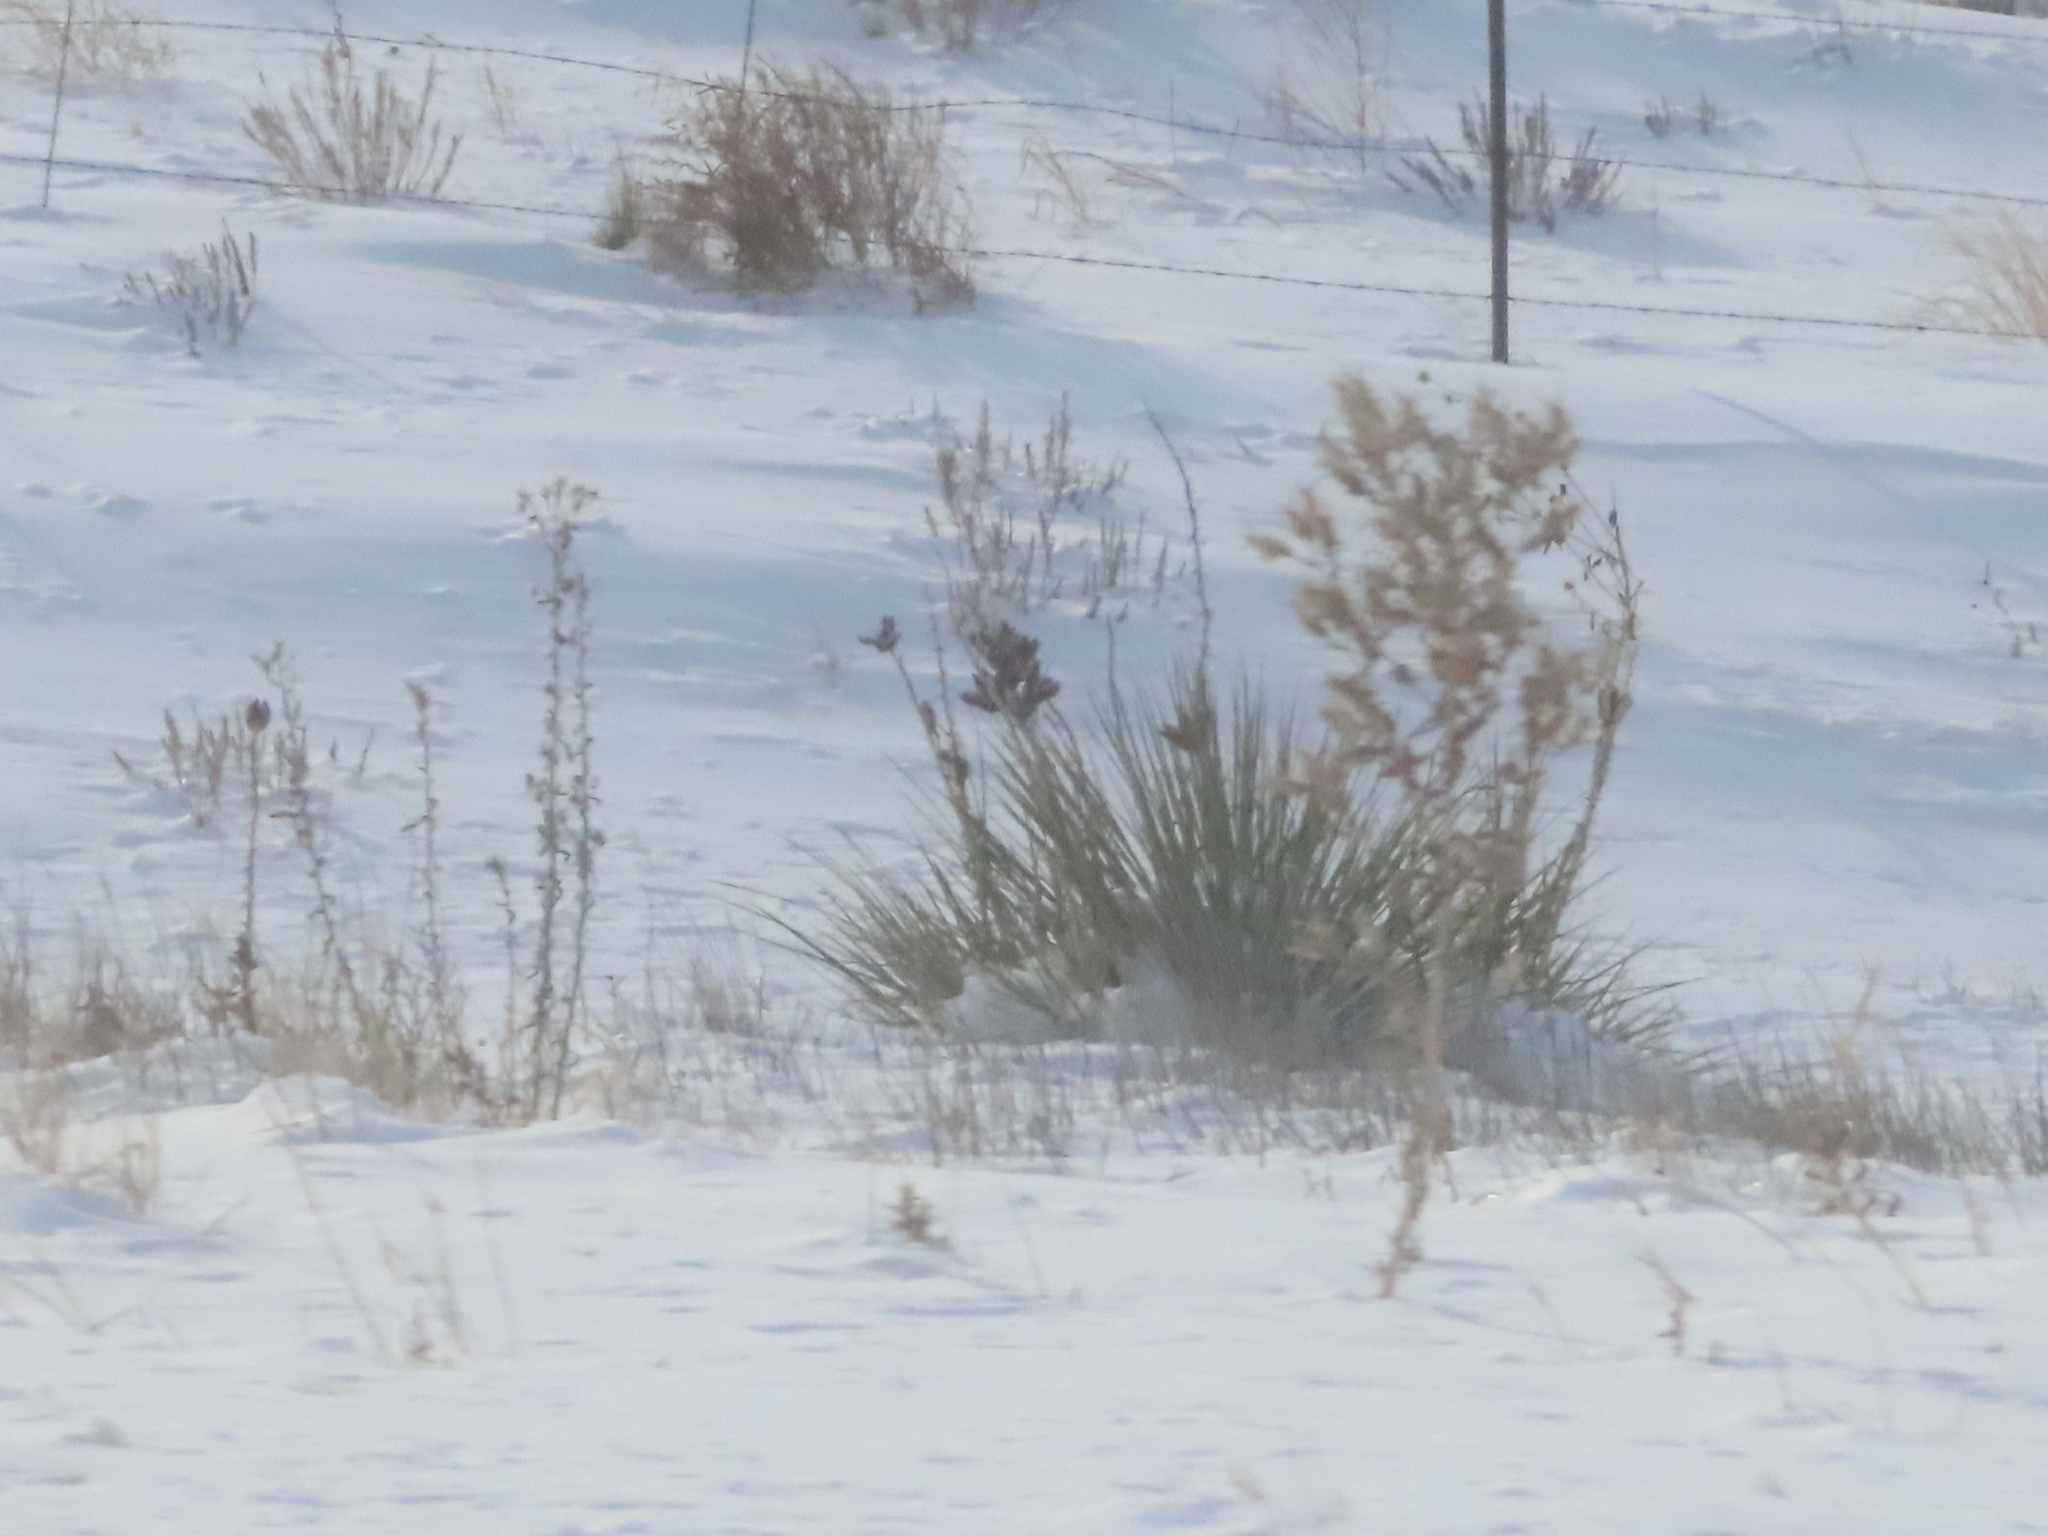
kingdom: Plantae
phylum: Tracheophyta
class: Liliopsida
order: Asparagales
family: Asparagaceae
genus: Yucca
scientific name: Yucca glauca
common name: Great plains yucca
